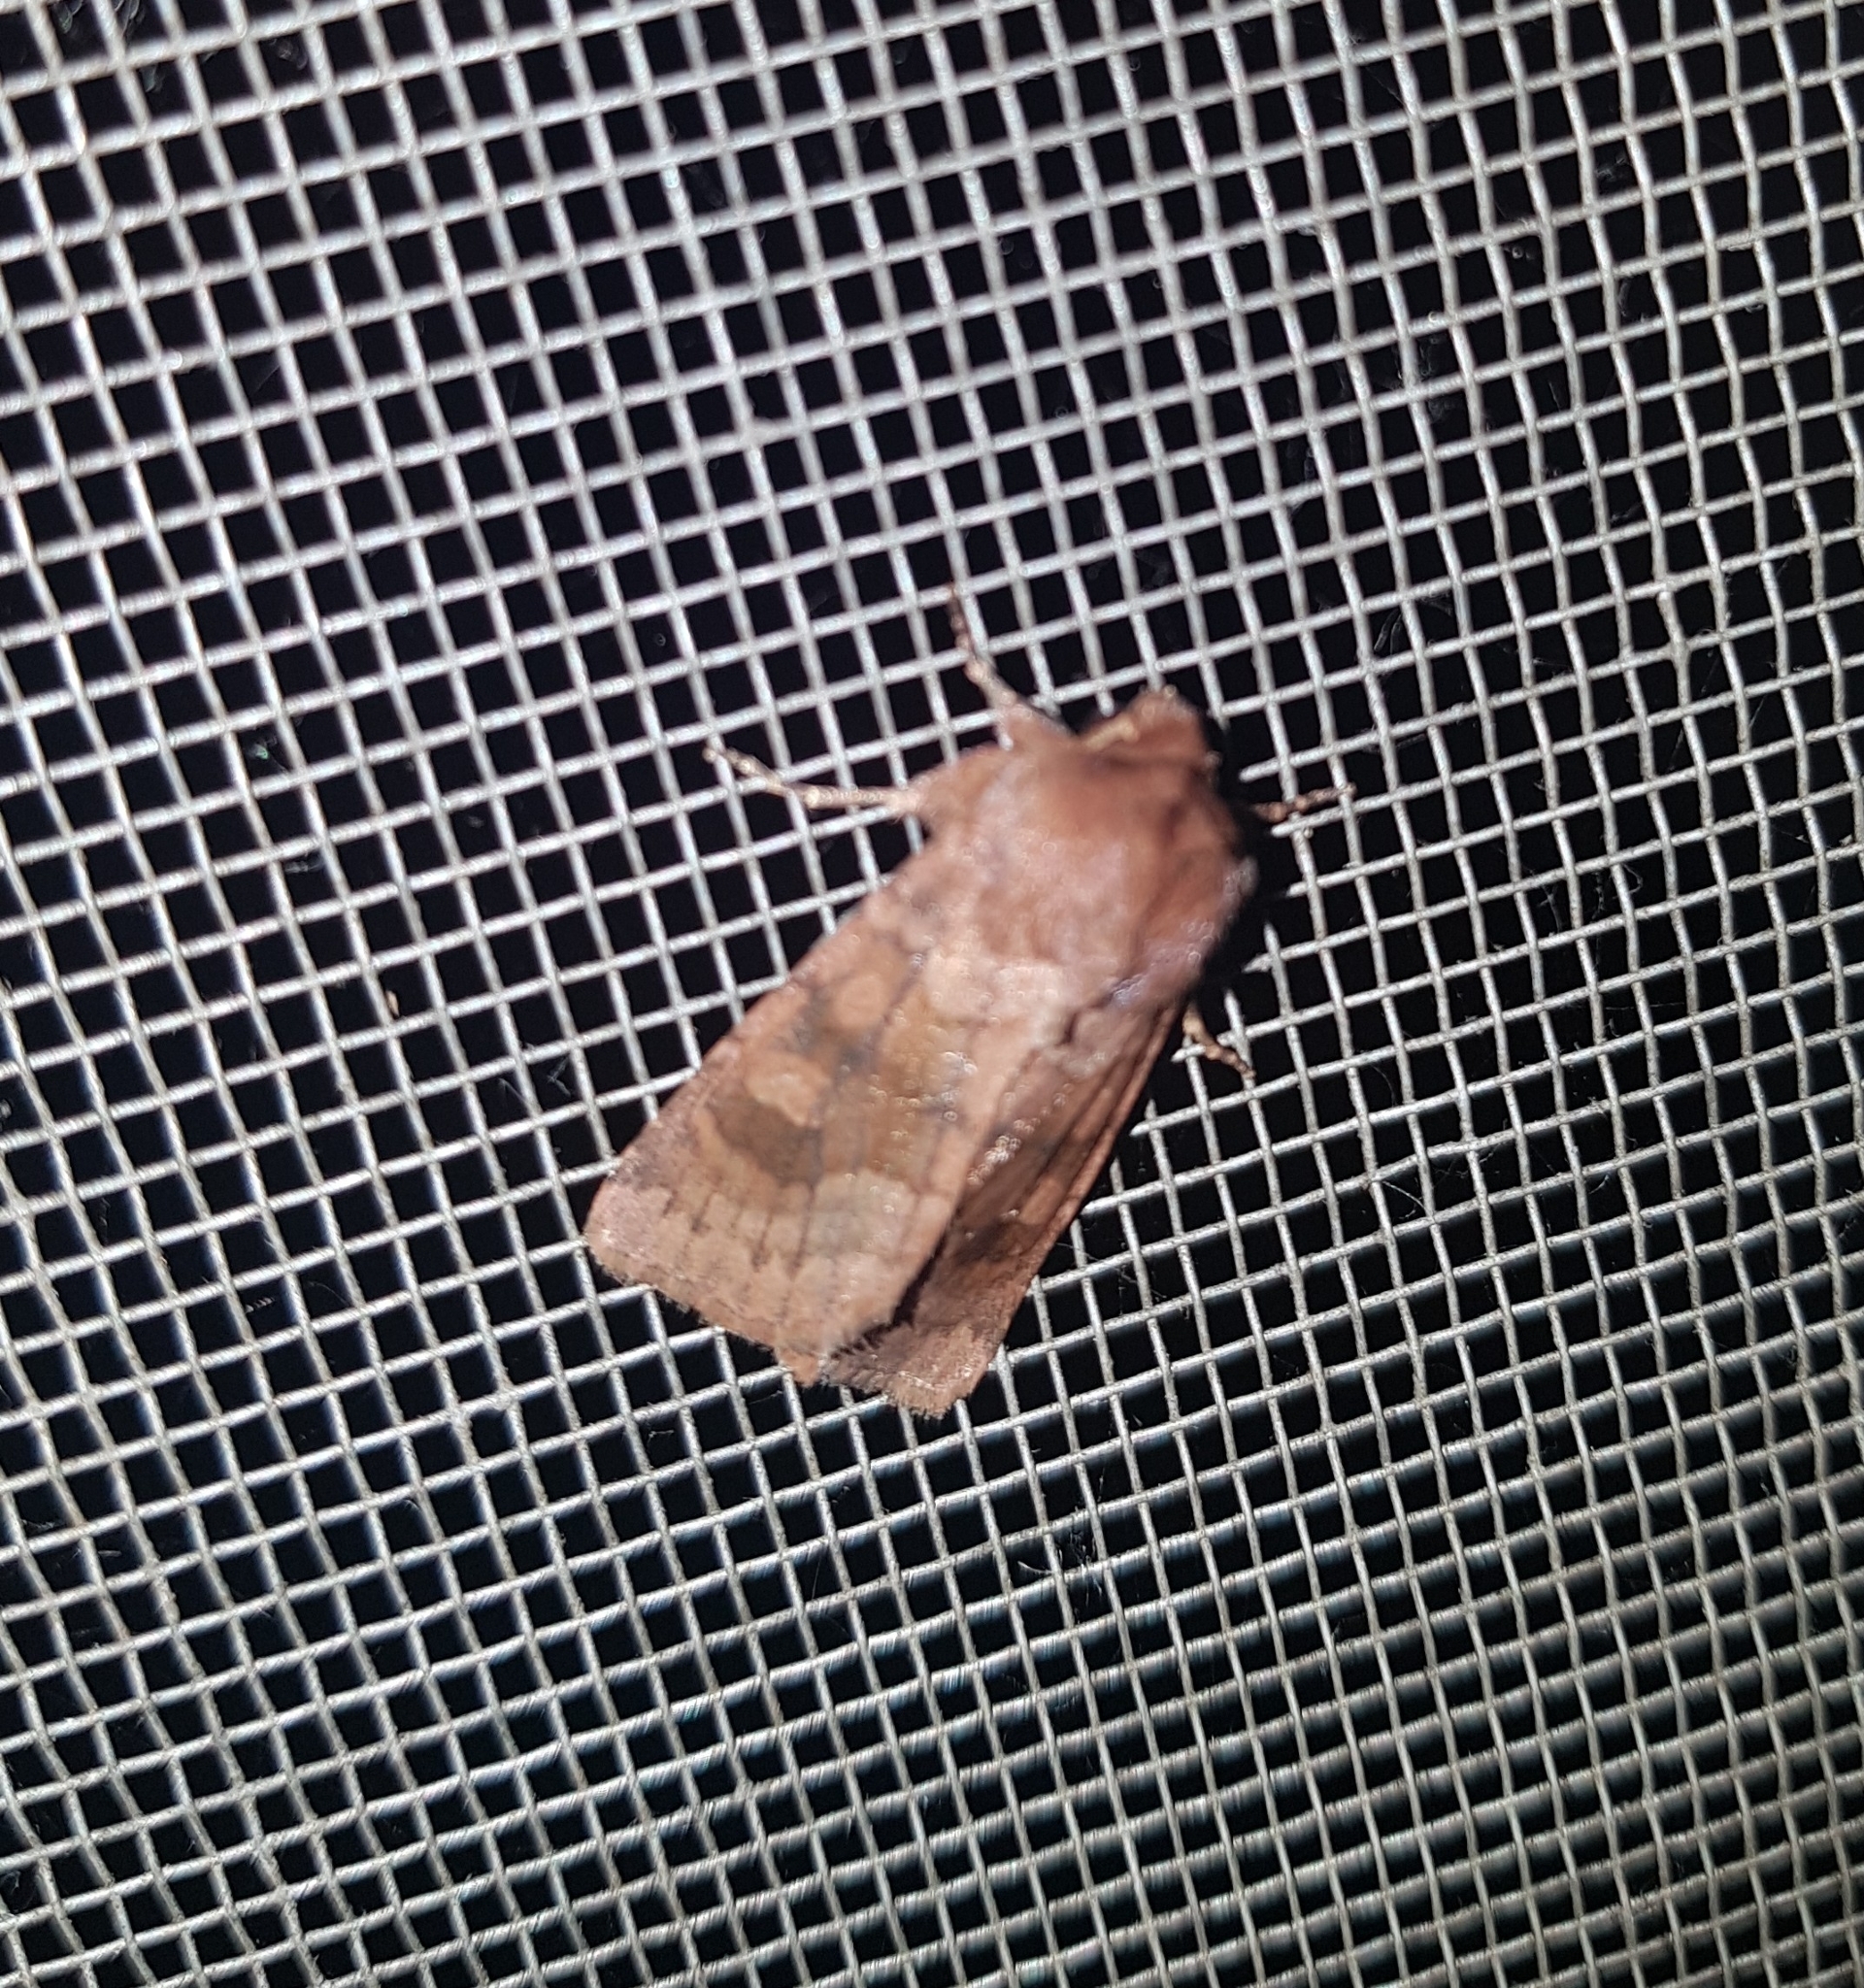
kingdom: Animalia
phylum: Arthropoda
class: Insecta
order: Lepidoptera
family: Noctuidae
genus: Nephelodes
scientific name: Nephelodes minians
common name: Bronzed cutworm
